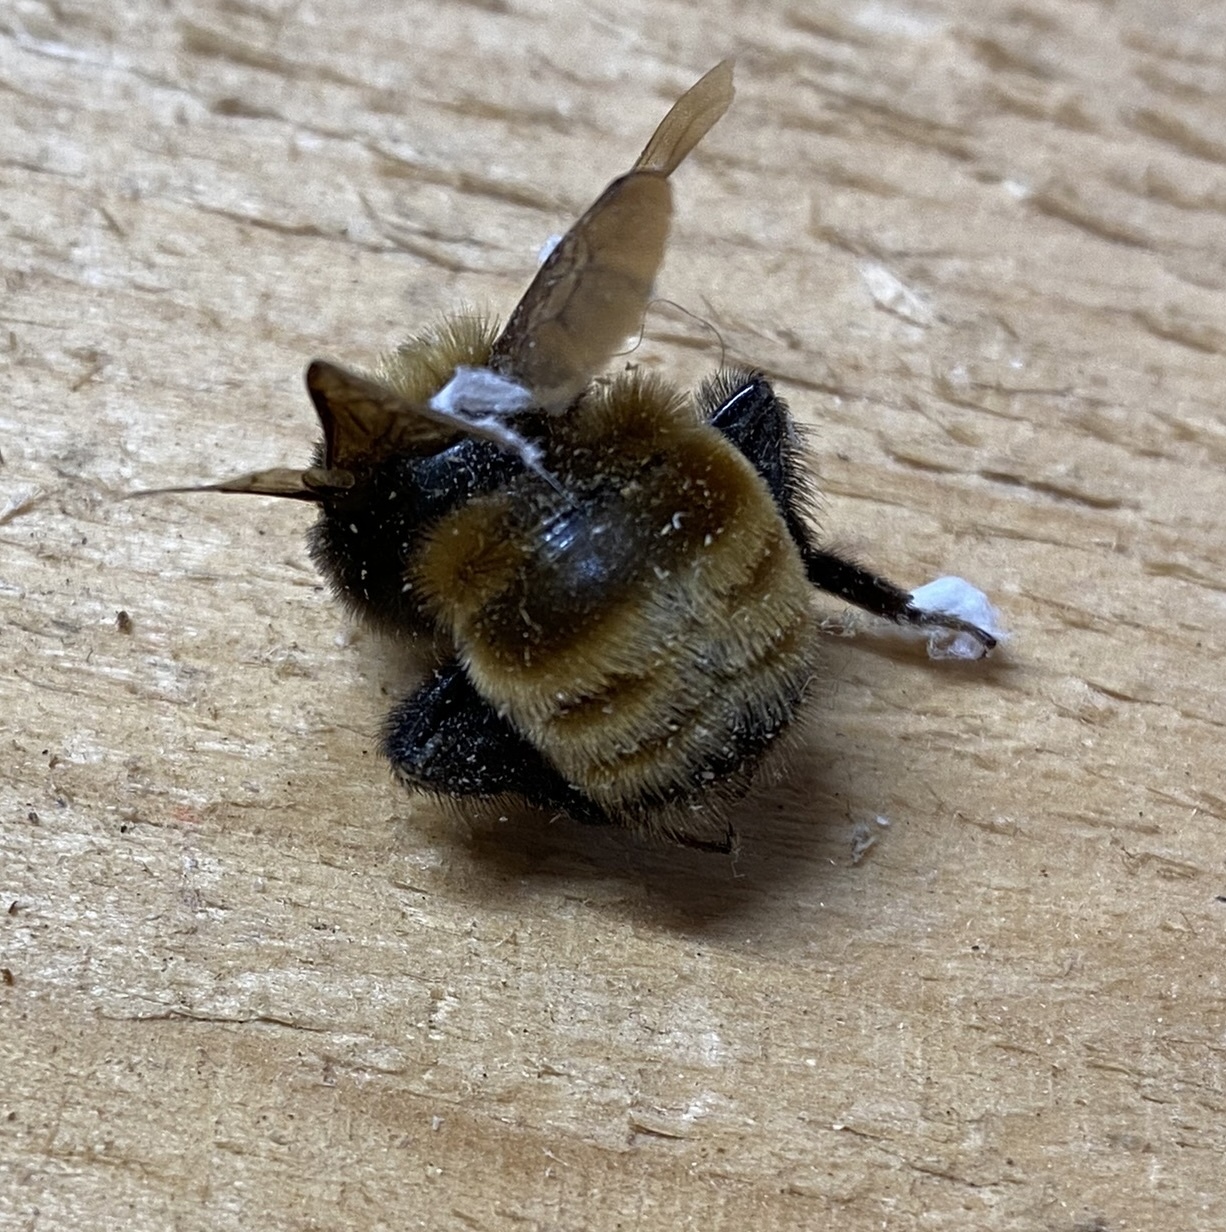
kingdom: Animalia
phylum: Arthropoda
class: Insecta
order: Hymenoptera
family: Apidae
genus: Bombus
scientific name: Bombus borealis
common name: Northern amber bumble bee
